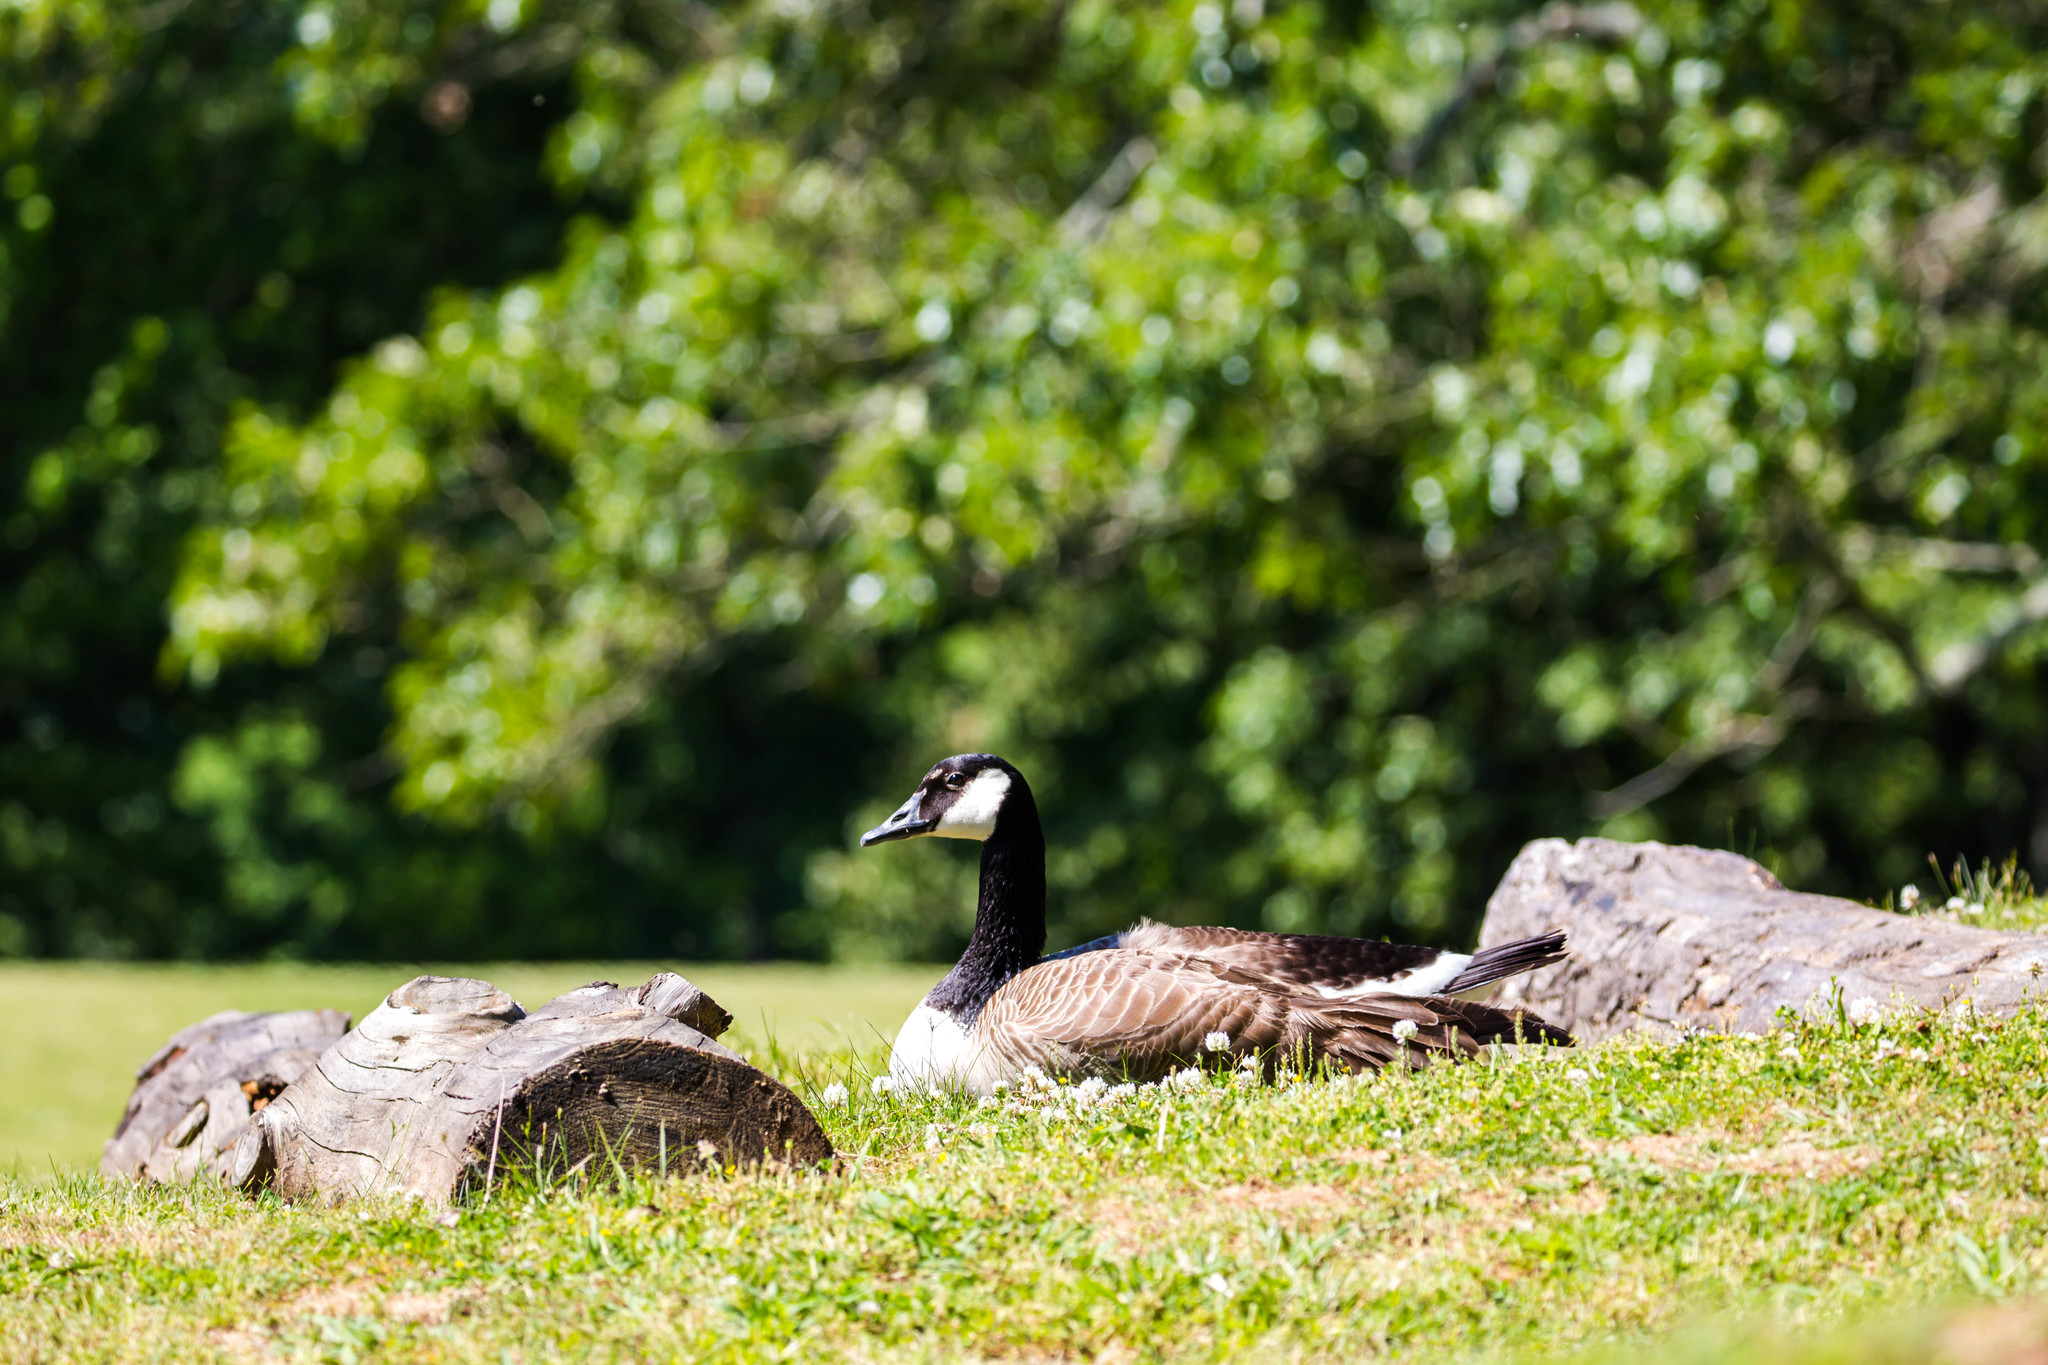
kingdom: Animalia
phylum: Chordata
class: Aves
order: Anseriformes
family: Anatidae
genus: Branta
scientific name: Branta canadensis
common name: Canada goose
